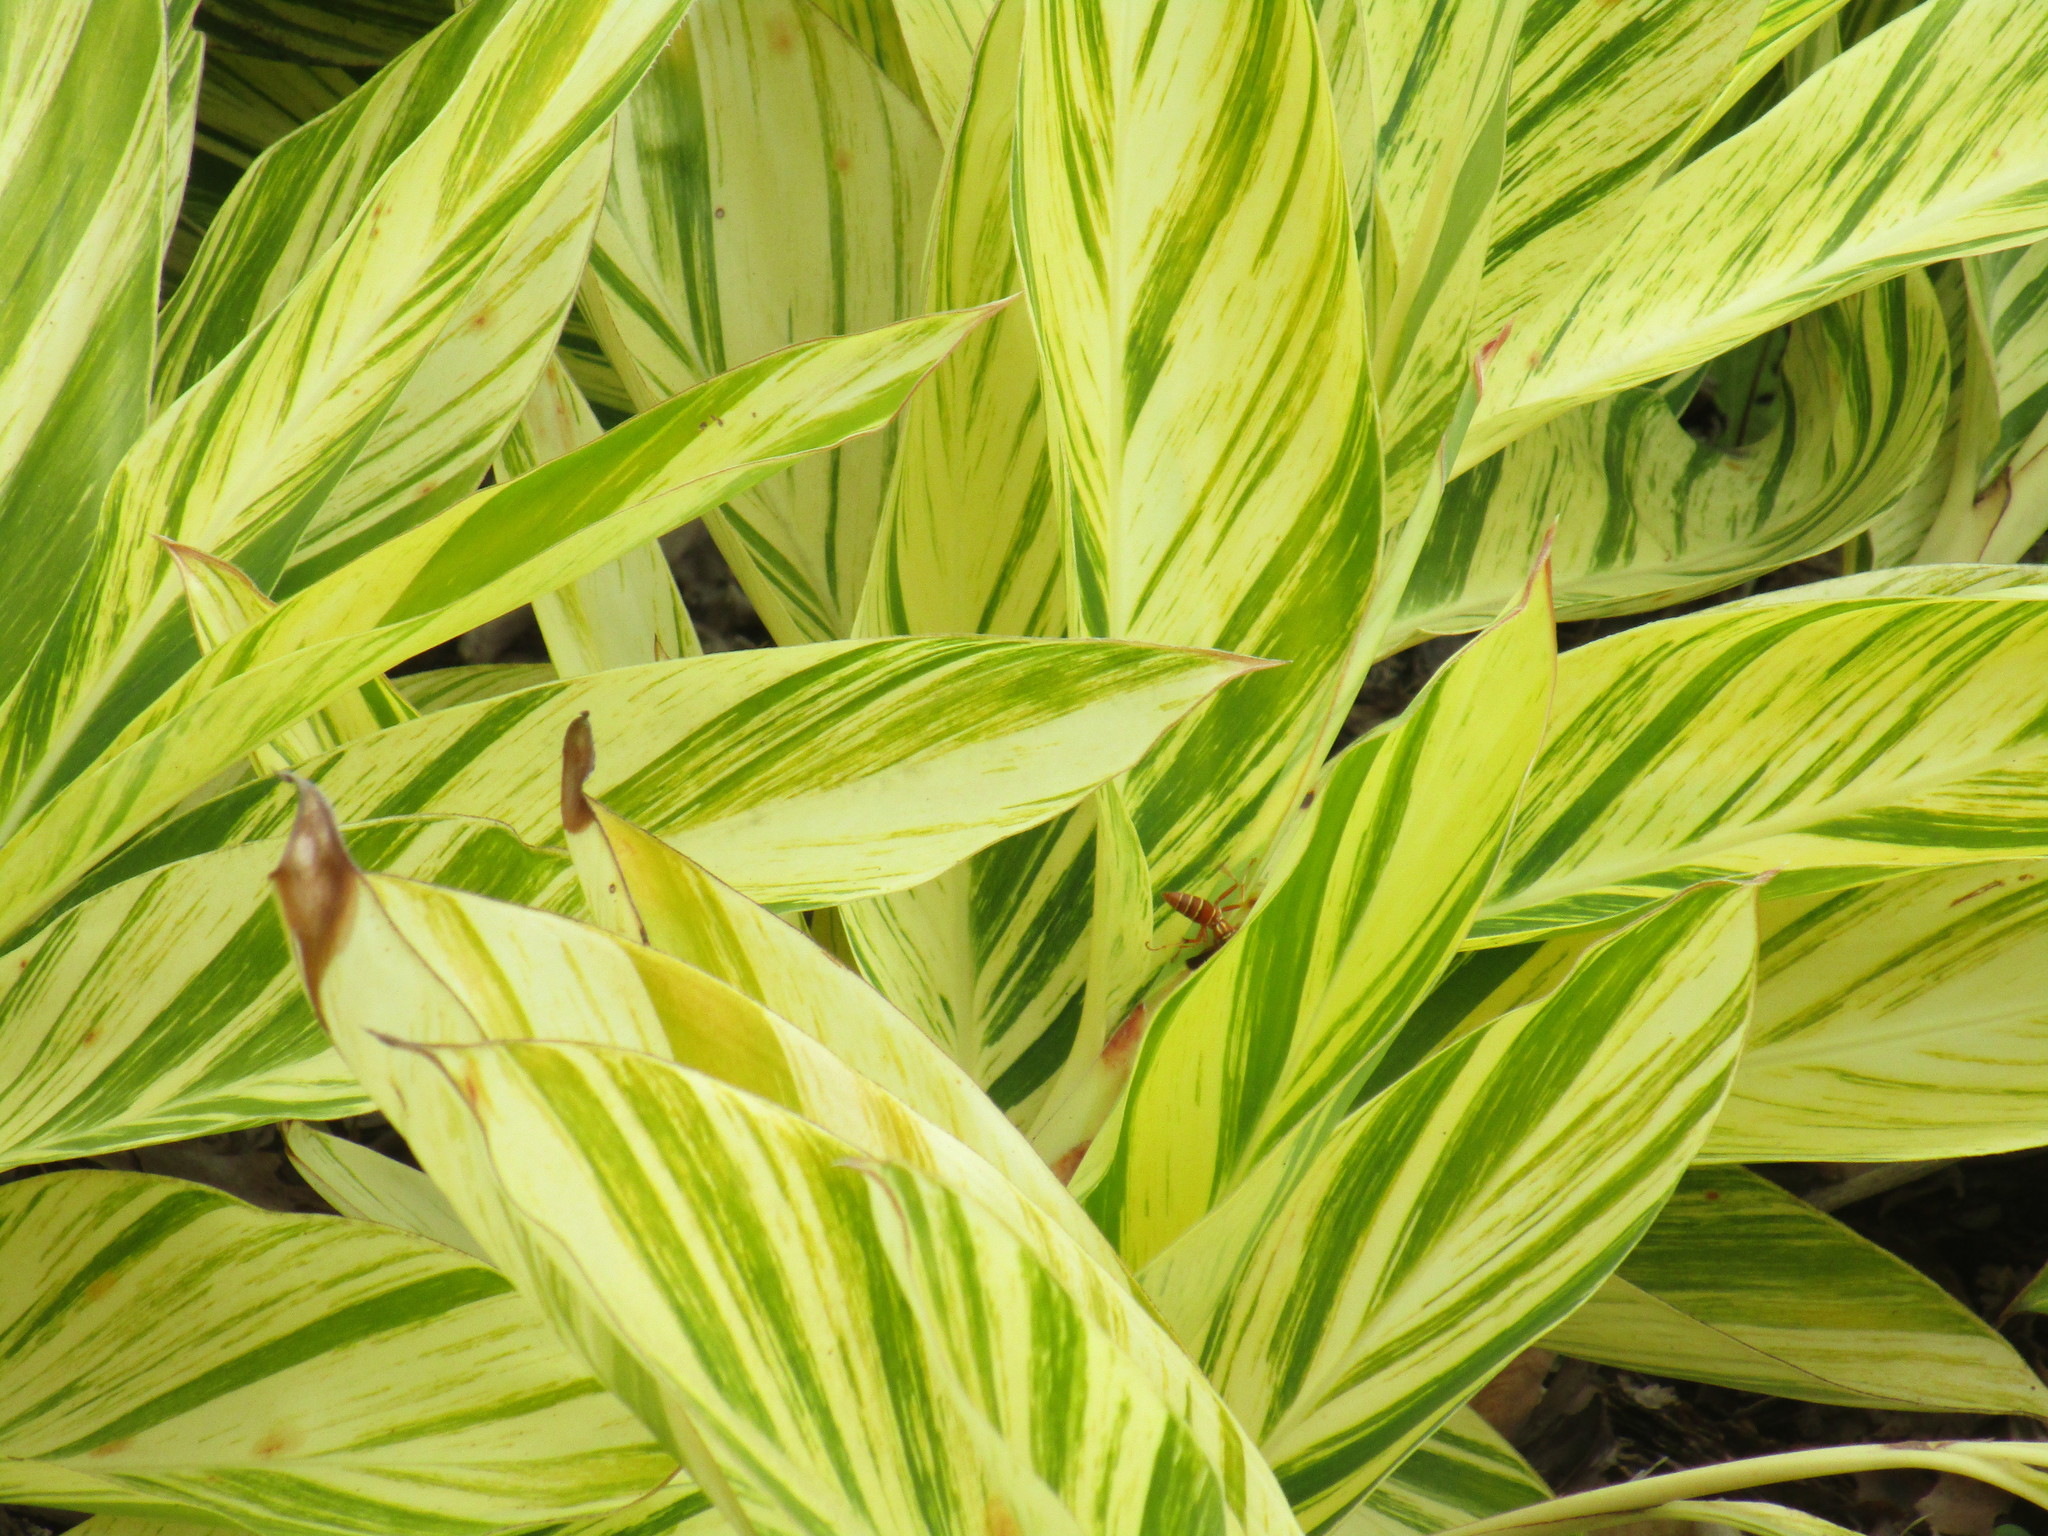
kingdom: Animalia
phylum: Arthropoda
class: Insecta
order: Hymenoptera
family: Eumenidae
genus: Polistes
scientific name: Polistes bellicosus
